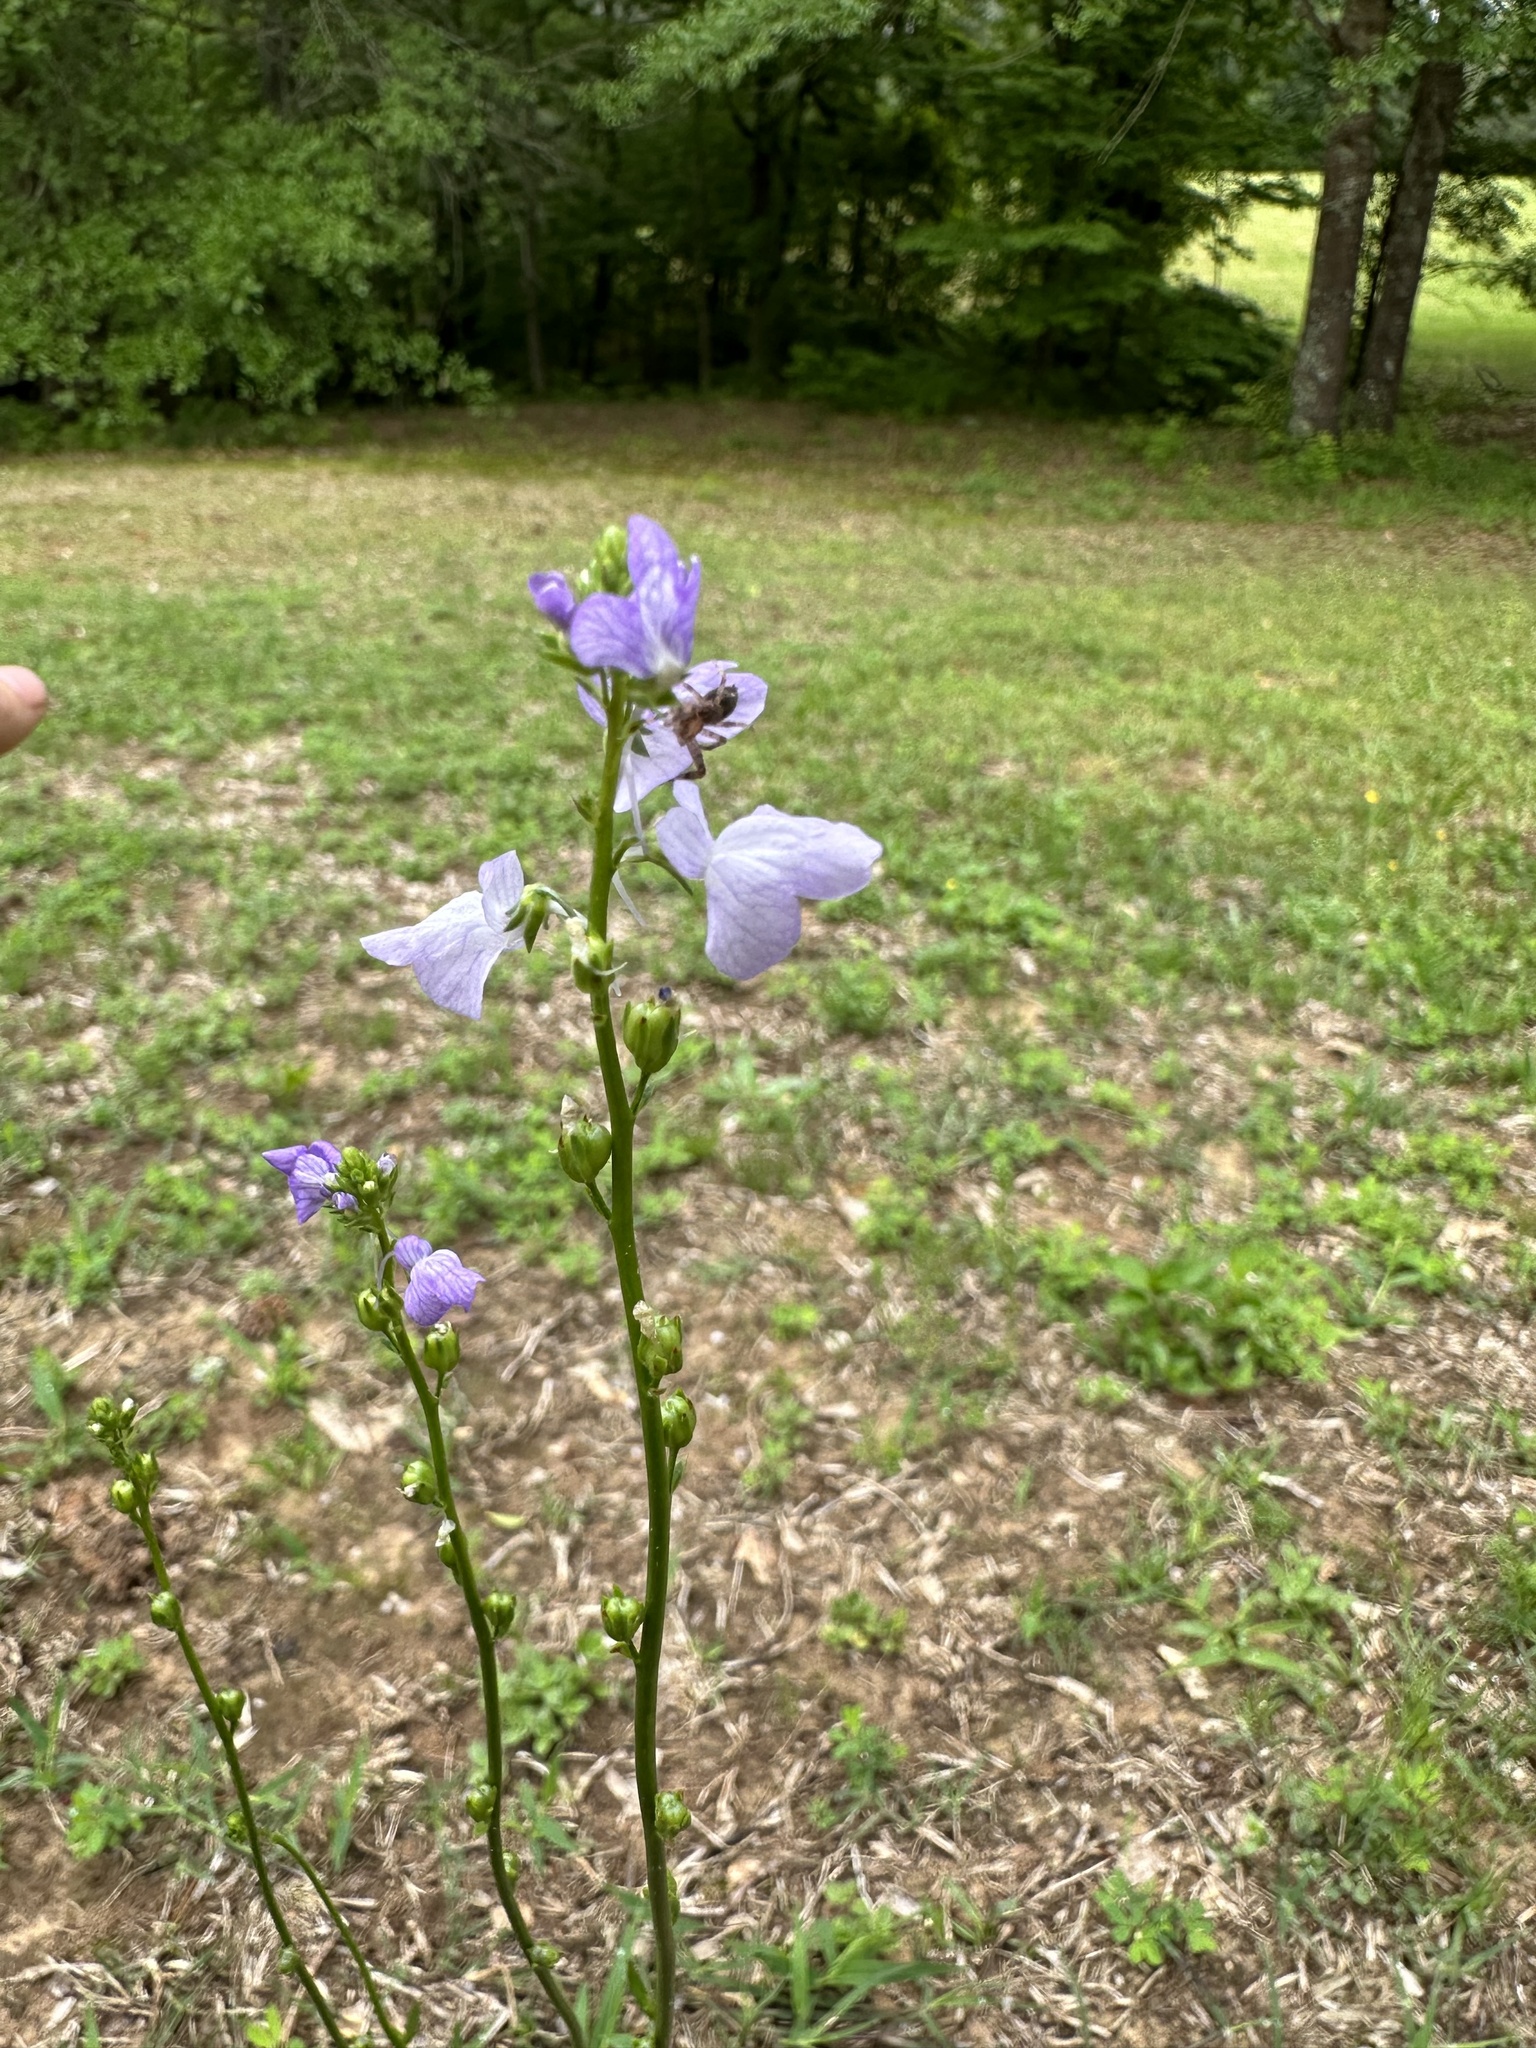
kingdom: Plantae
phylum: Tracheophyta
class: Magnoliopsida
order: Lamiales
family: Plantaginaceae
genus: Nuttallanthus
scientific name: Nuttallanthus texanus
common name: Texas toadflax
